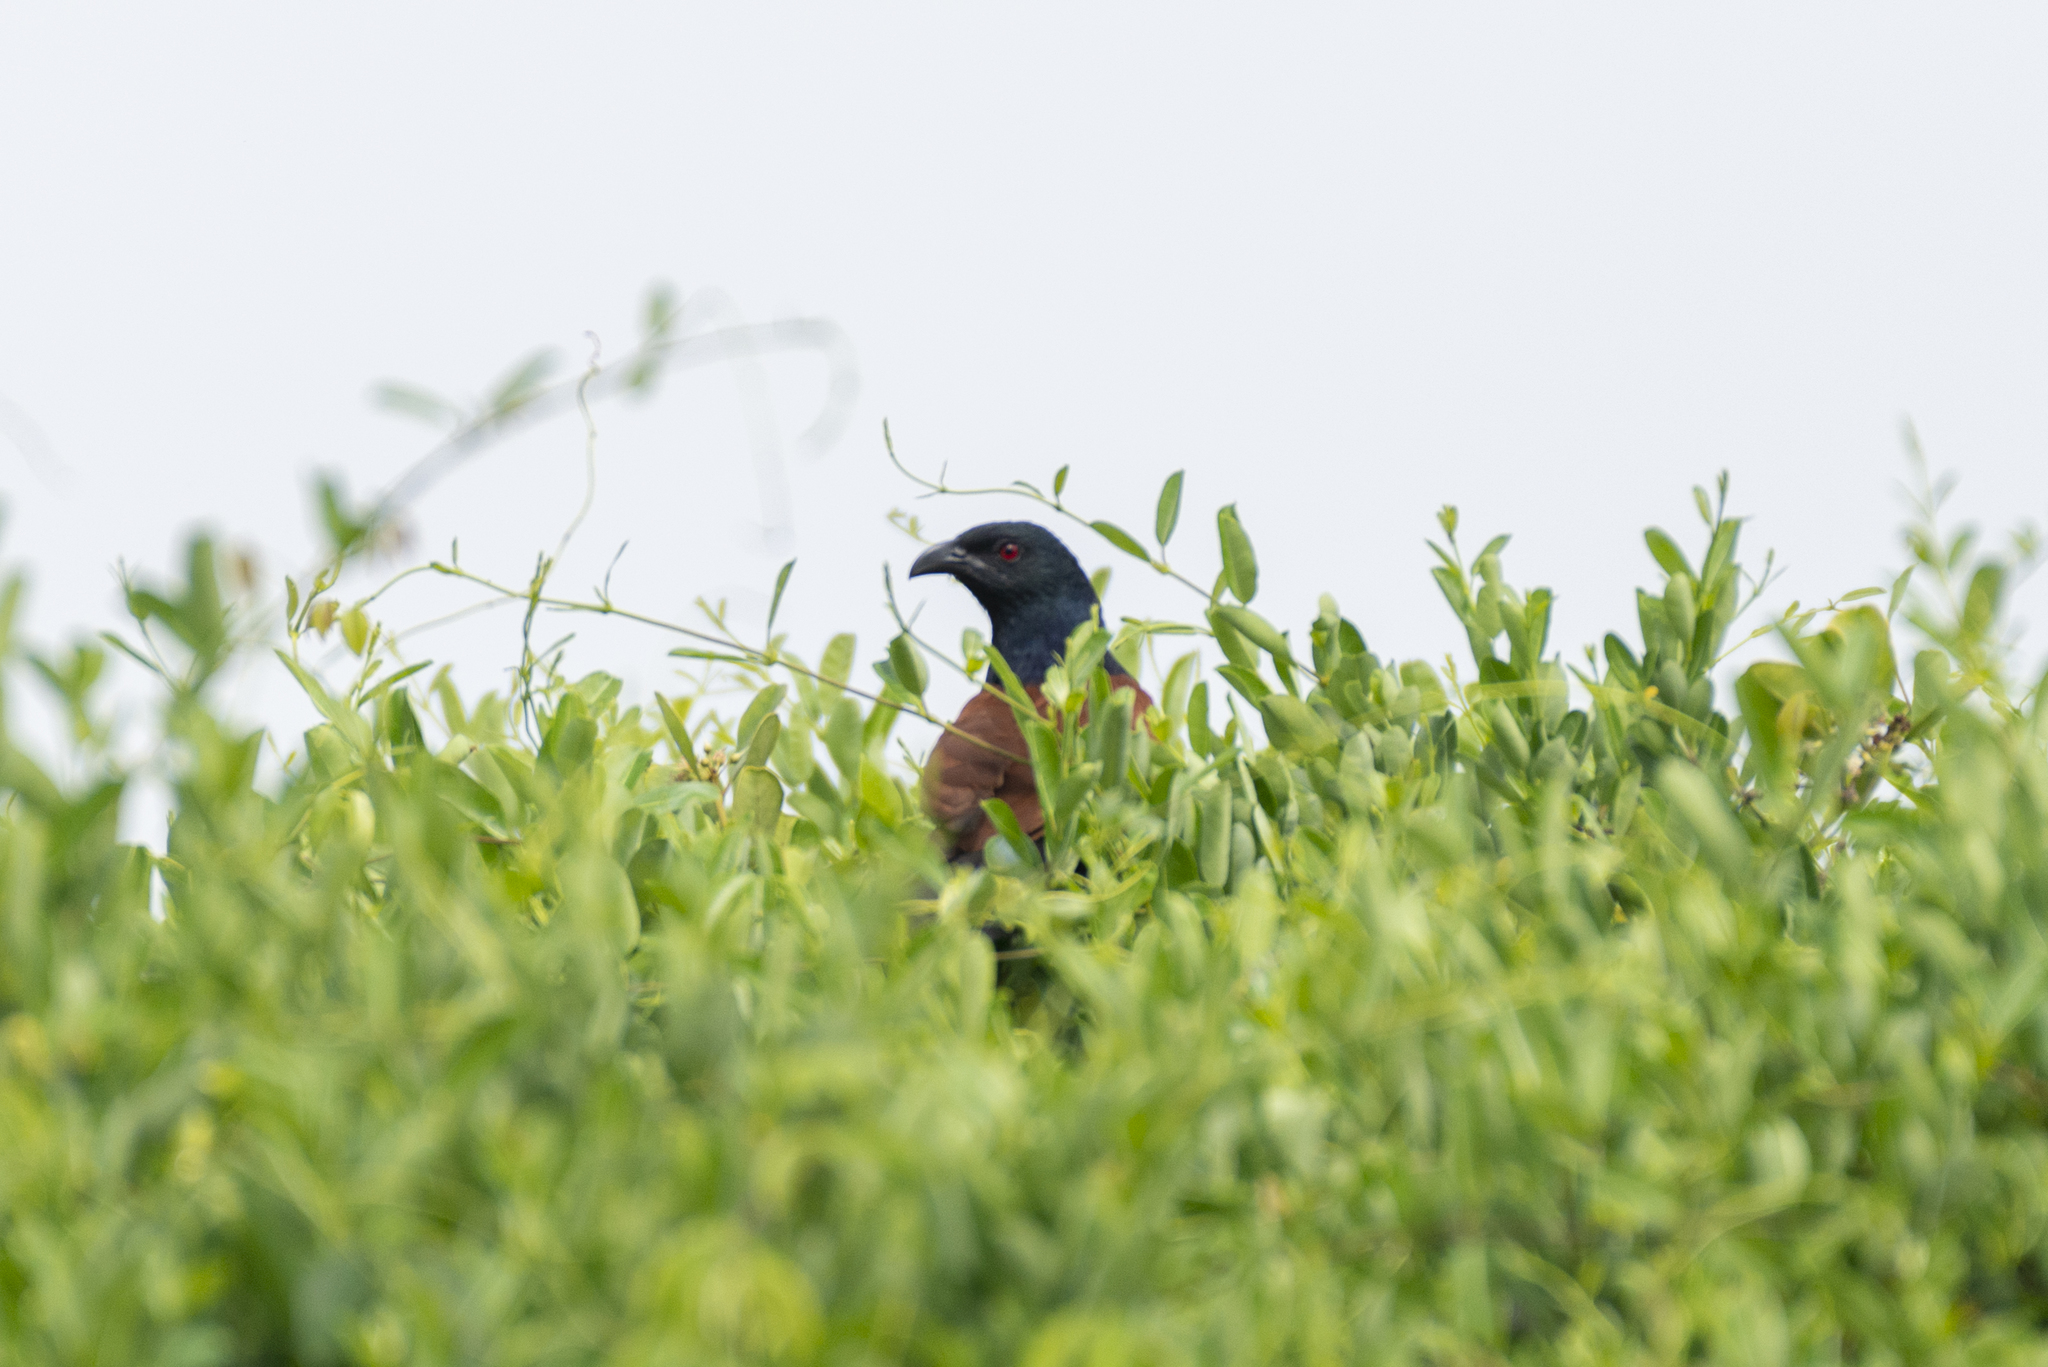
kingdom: Animalia
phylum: Chordata
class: Aves
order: Cuculiformes
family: Cuculidae
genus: Centropus
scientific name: Centropus sinensis
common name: Greater coucal
